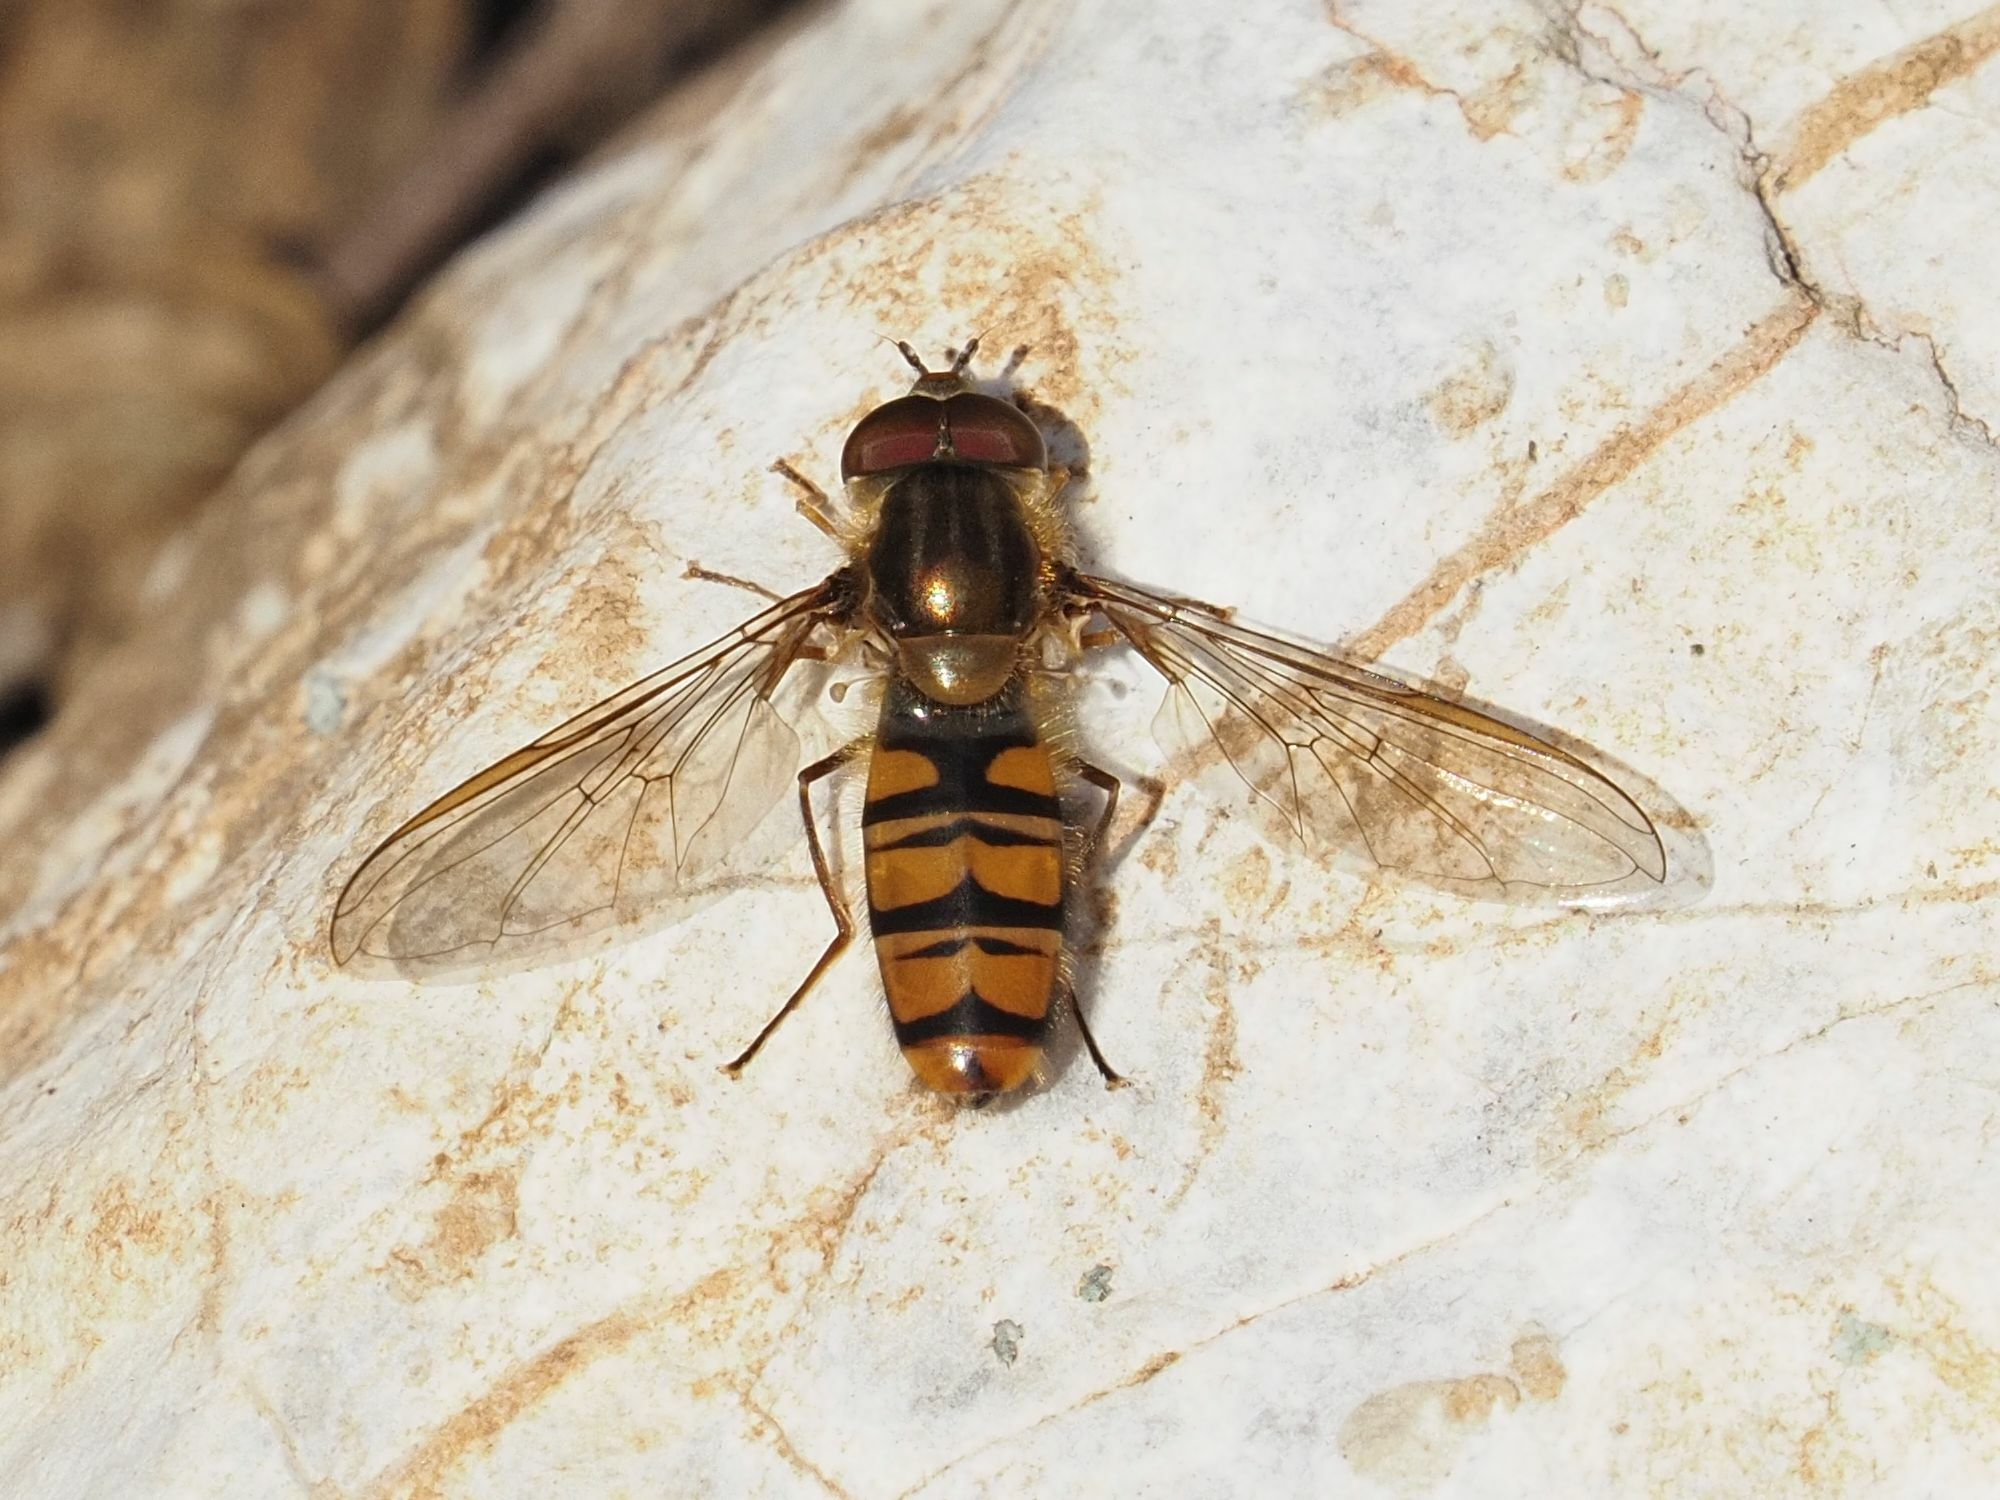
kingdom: Animalia
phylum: Arthropoda
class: Insecta
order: Diptera
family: Syrphidae
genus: Episyrphus
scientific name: Episyrphus balteatus
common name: Marmalade hoverfly
